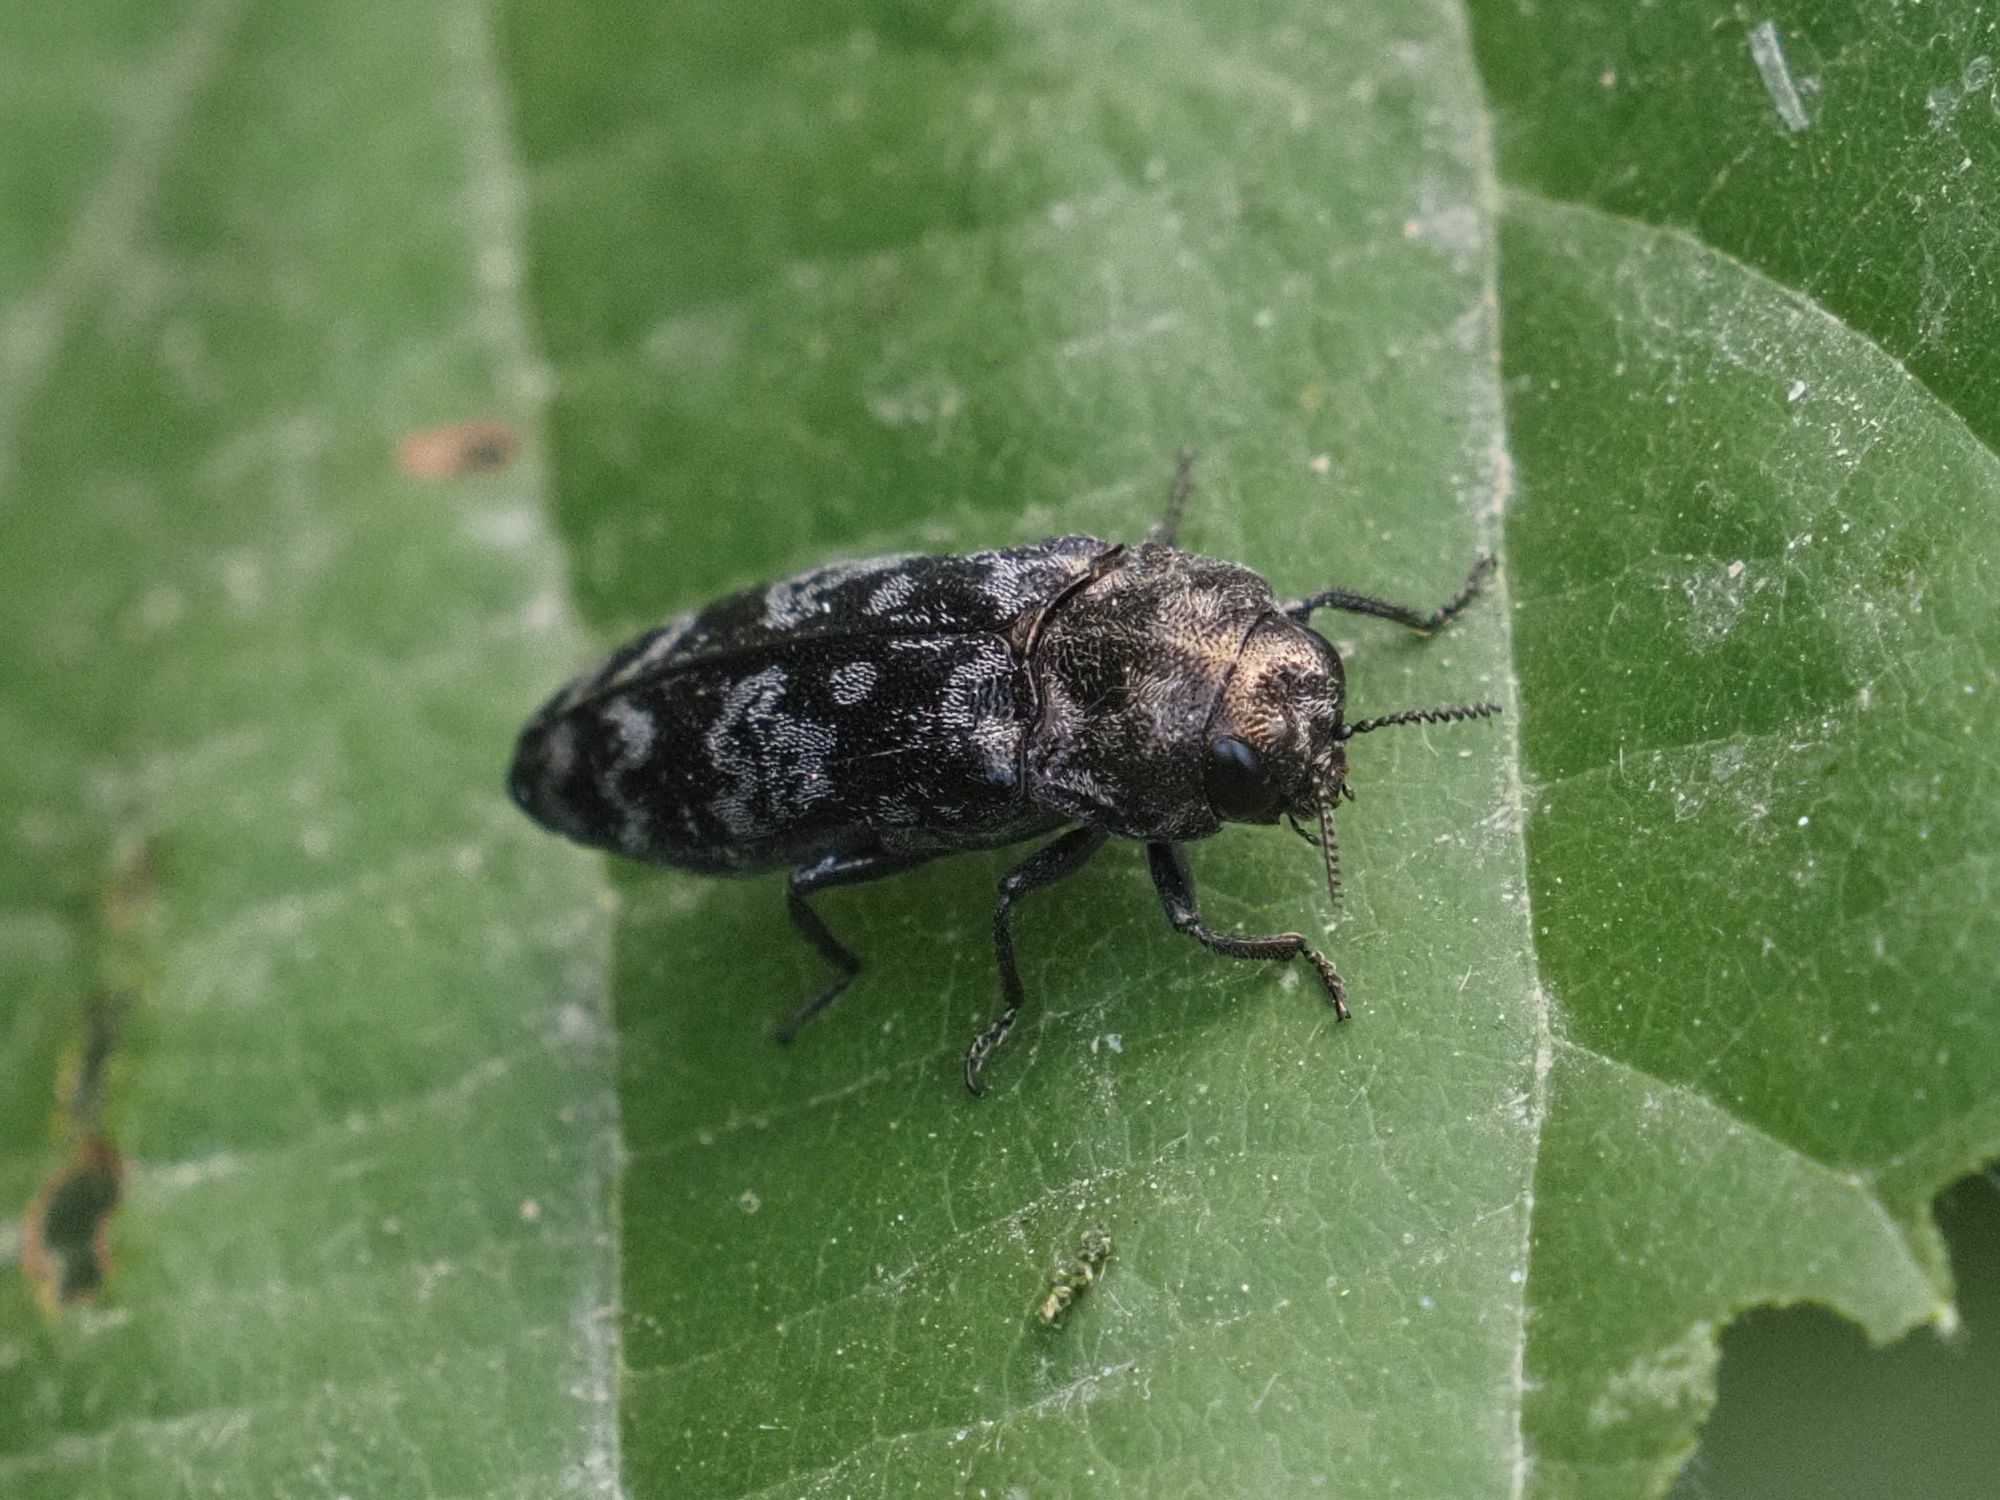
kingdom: Animalia
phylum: Arthropoda
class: Insecta
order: Coleoptera
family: Buprestidae
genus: Coraebus
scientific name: Coraebus rubi
